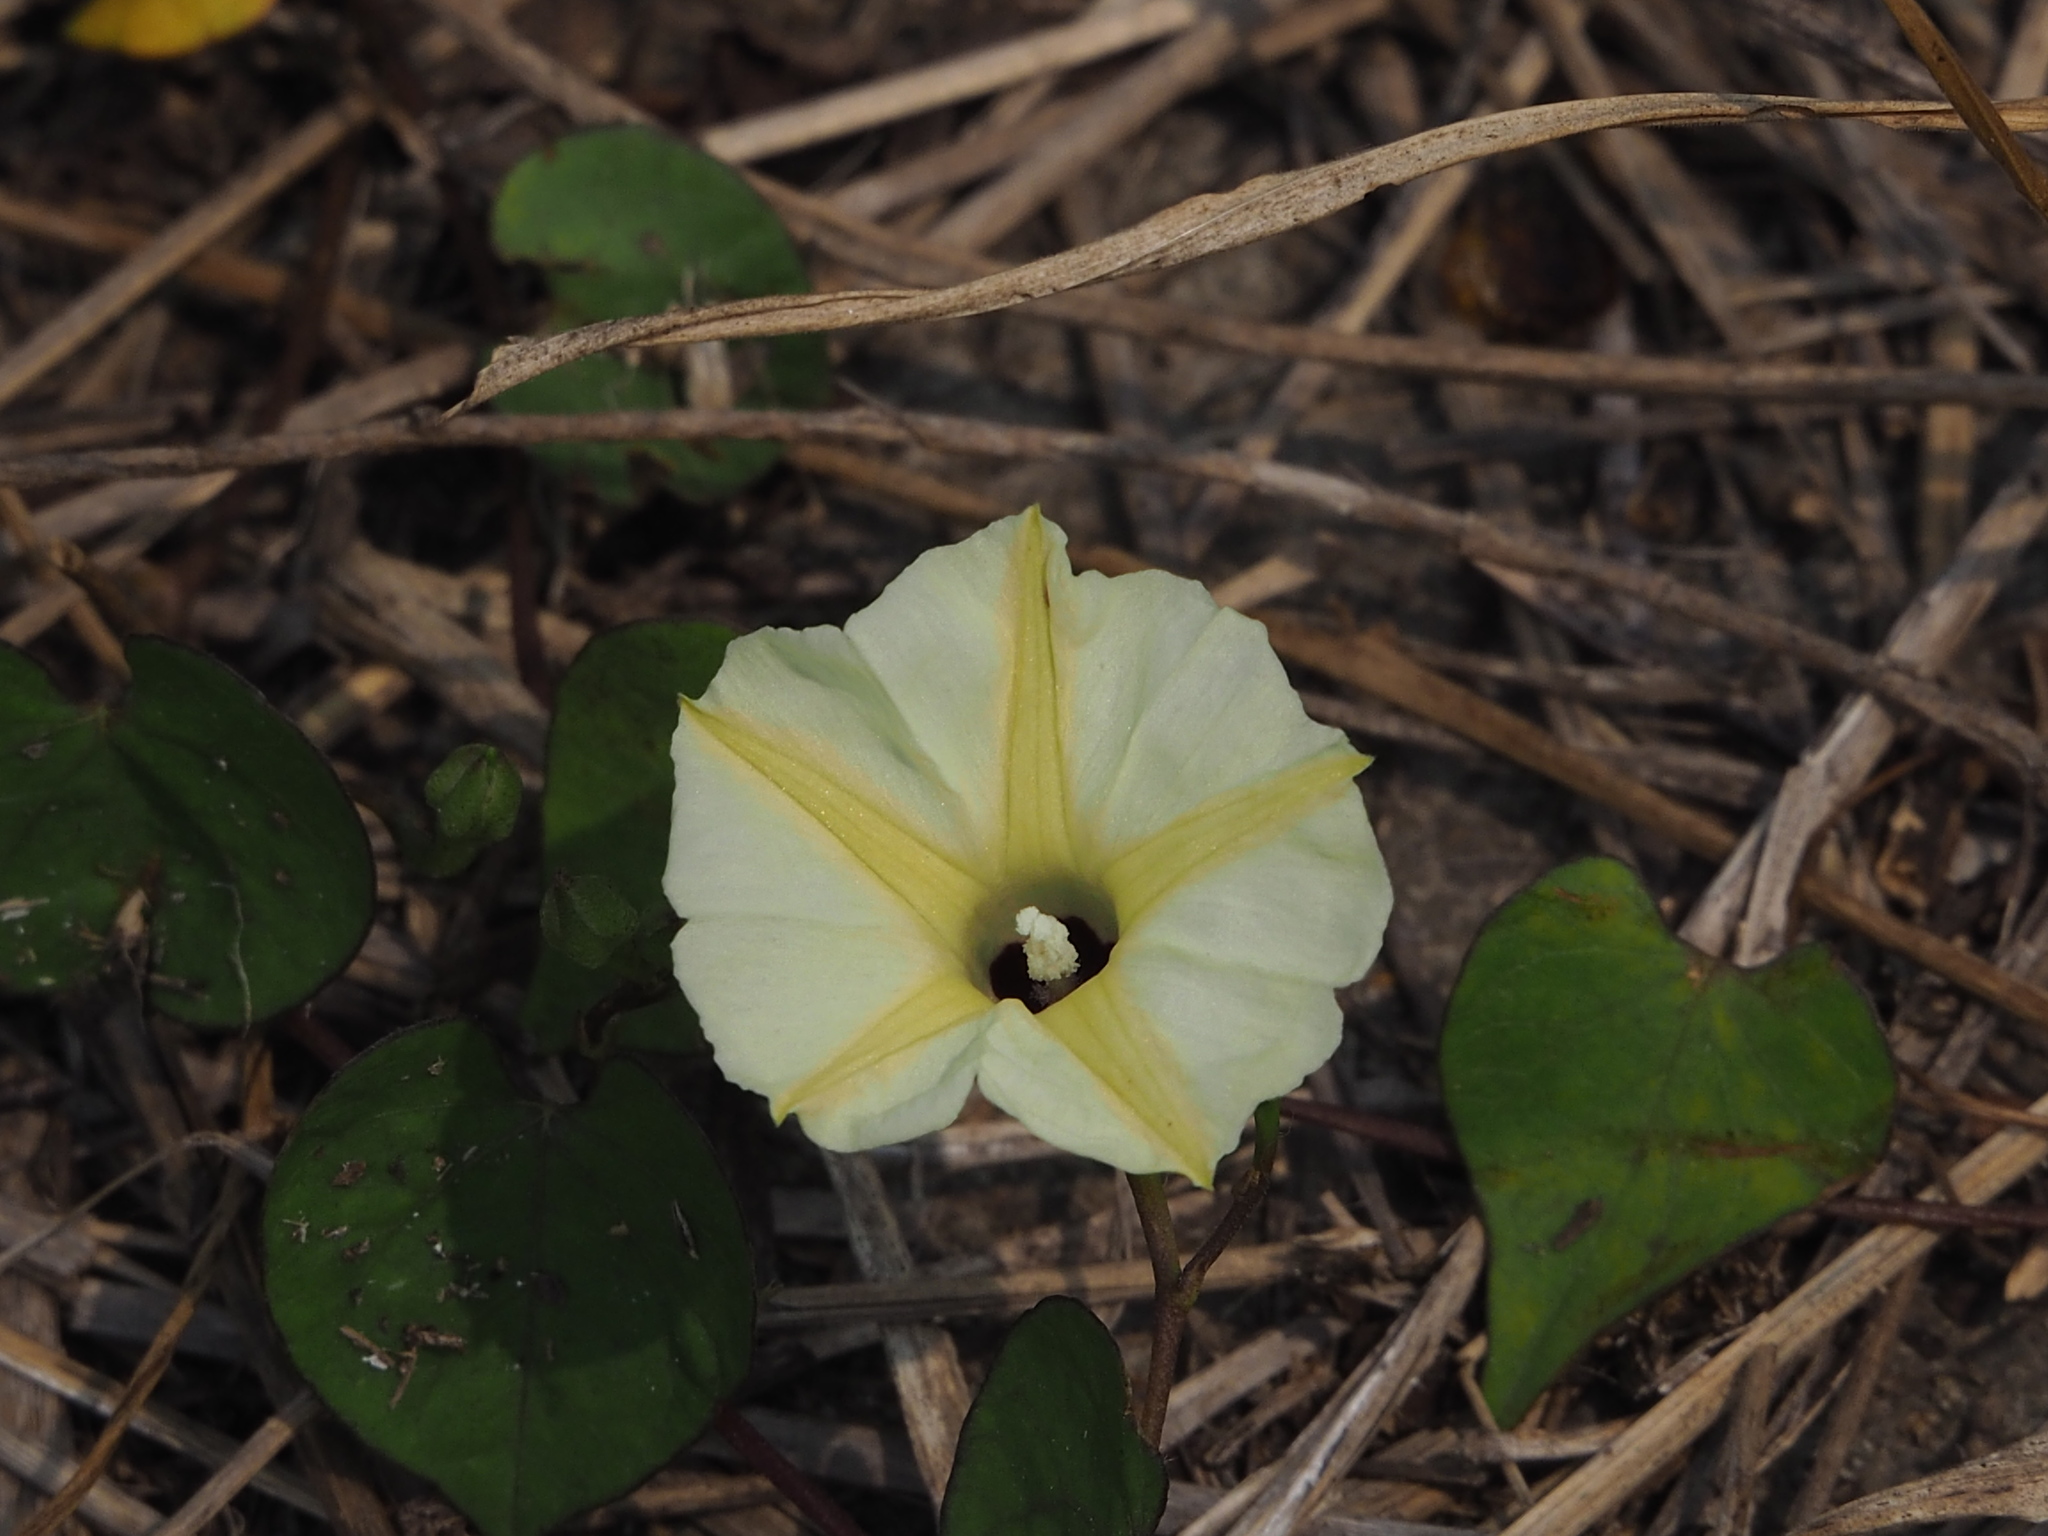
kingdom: Plantae
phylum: Tracheophyta
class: Magnoliopsida
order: Solanales
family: Convolvulaceae
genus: Ipomoea
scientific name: Ipomoea obscura
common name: Obscure morning-glory
